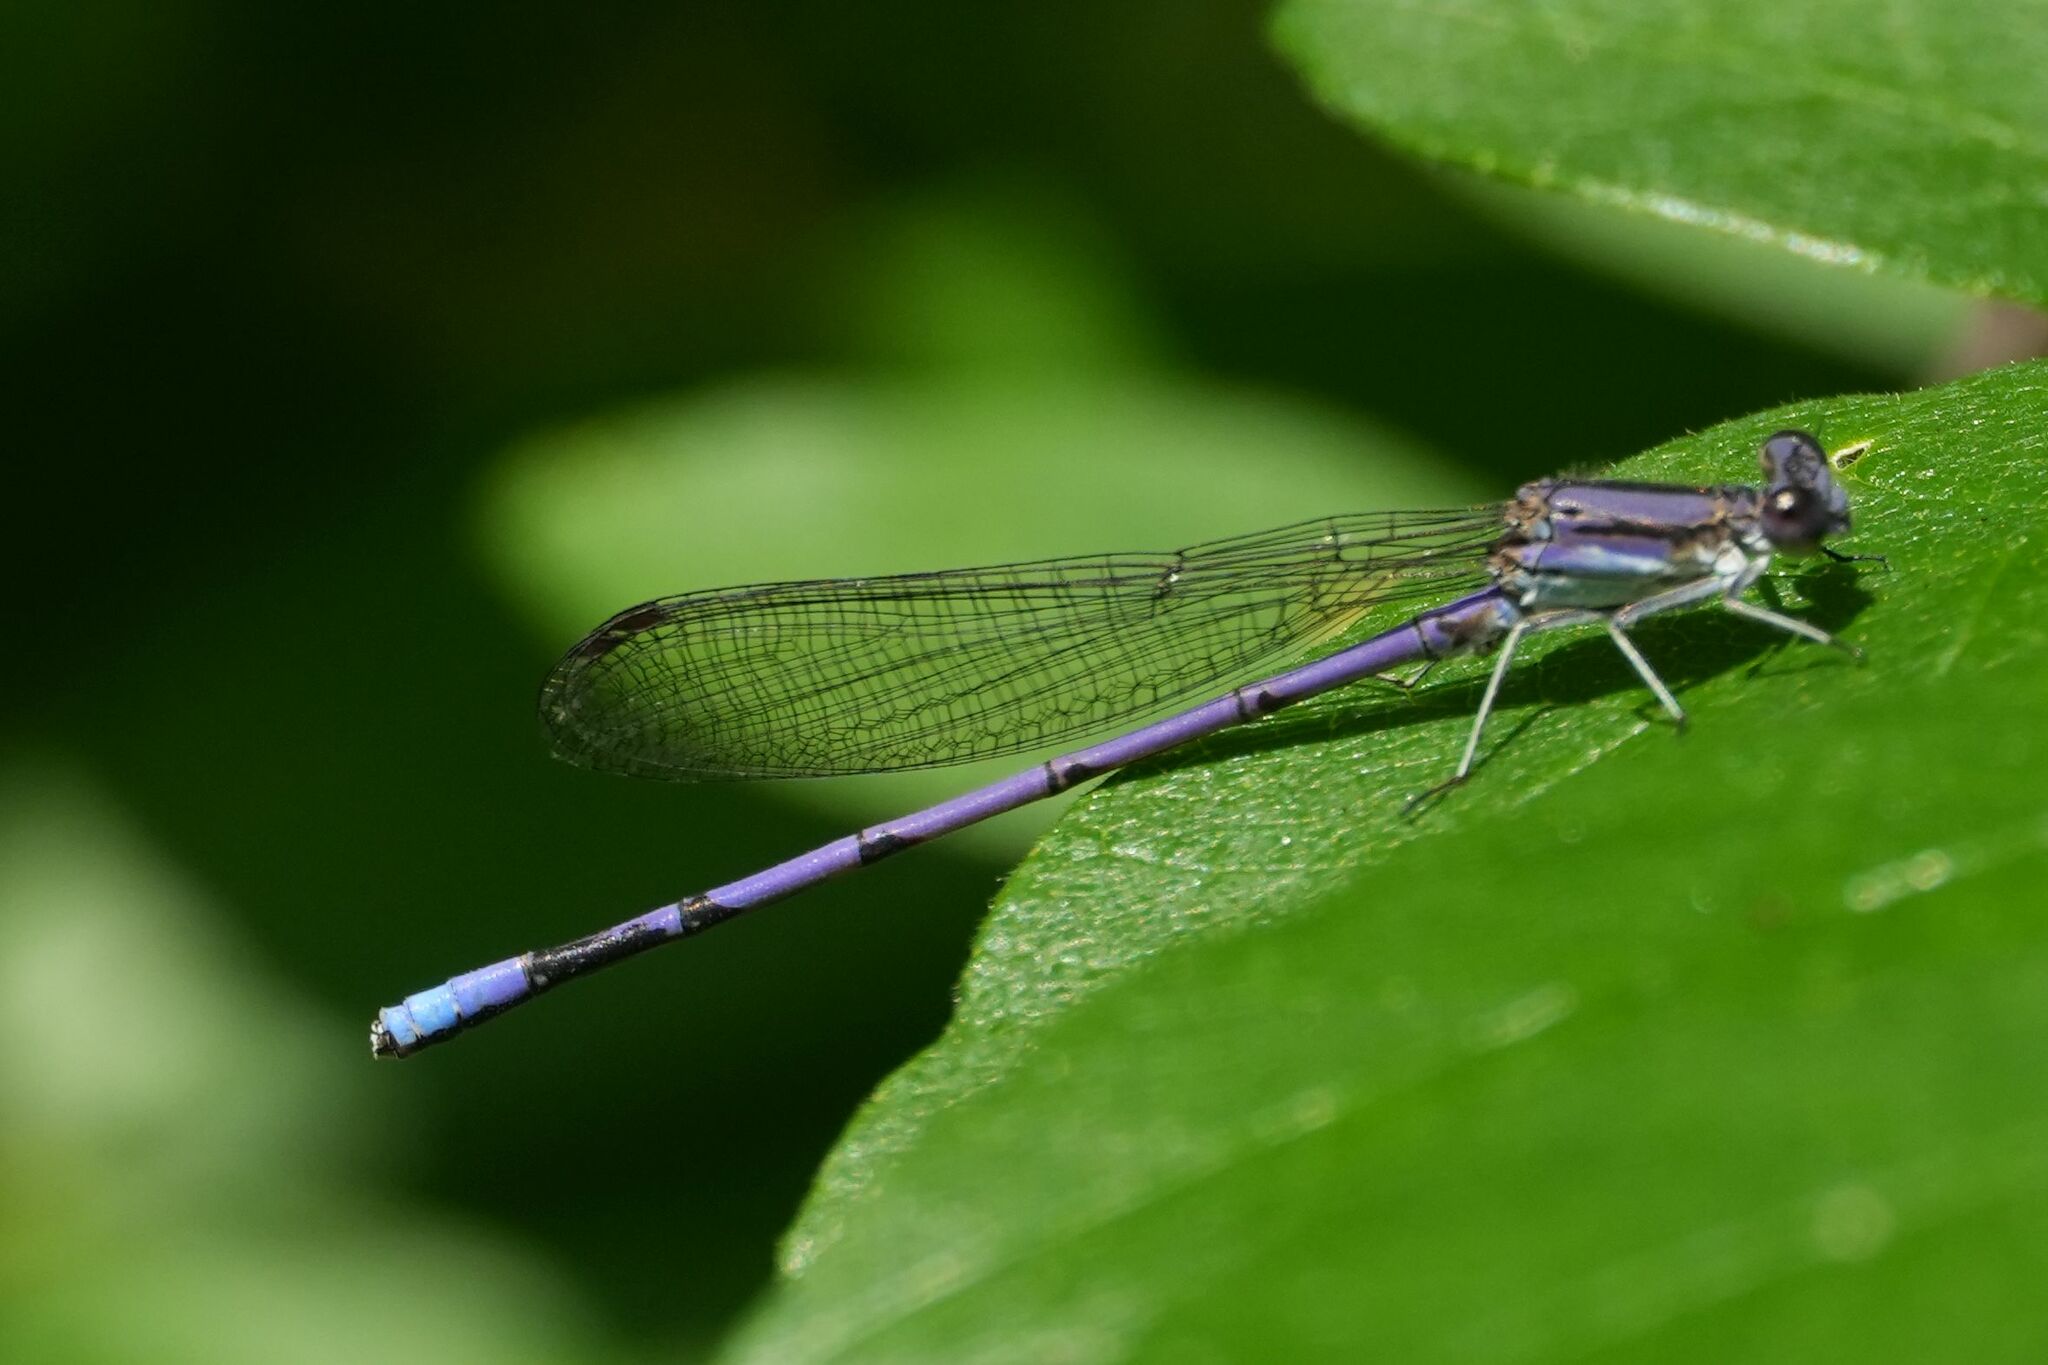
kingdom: Animalia
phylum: Arthropoda
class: Insecta
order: Odonata
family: Coenagrionidae
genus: Argia
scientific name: Argia fumipennis
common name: Variable dancer
